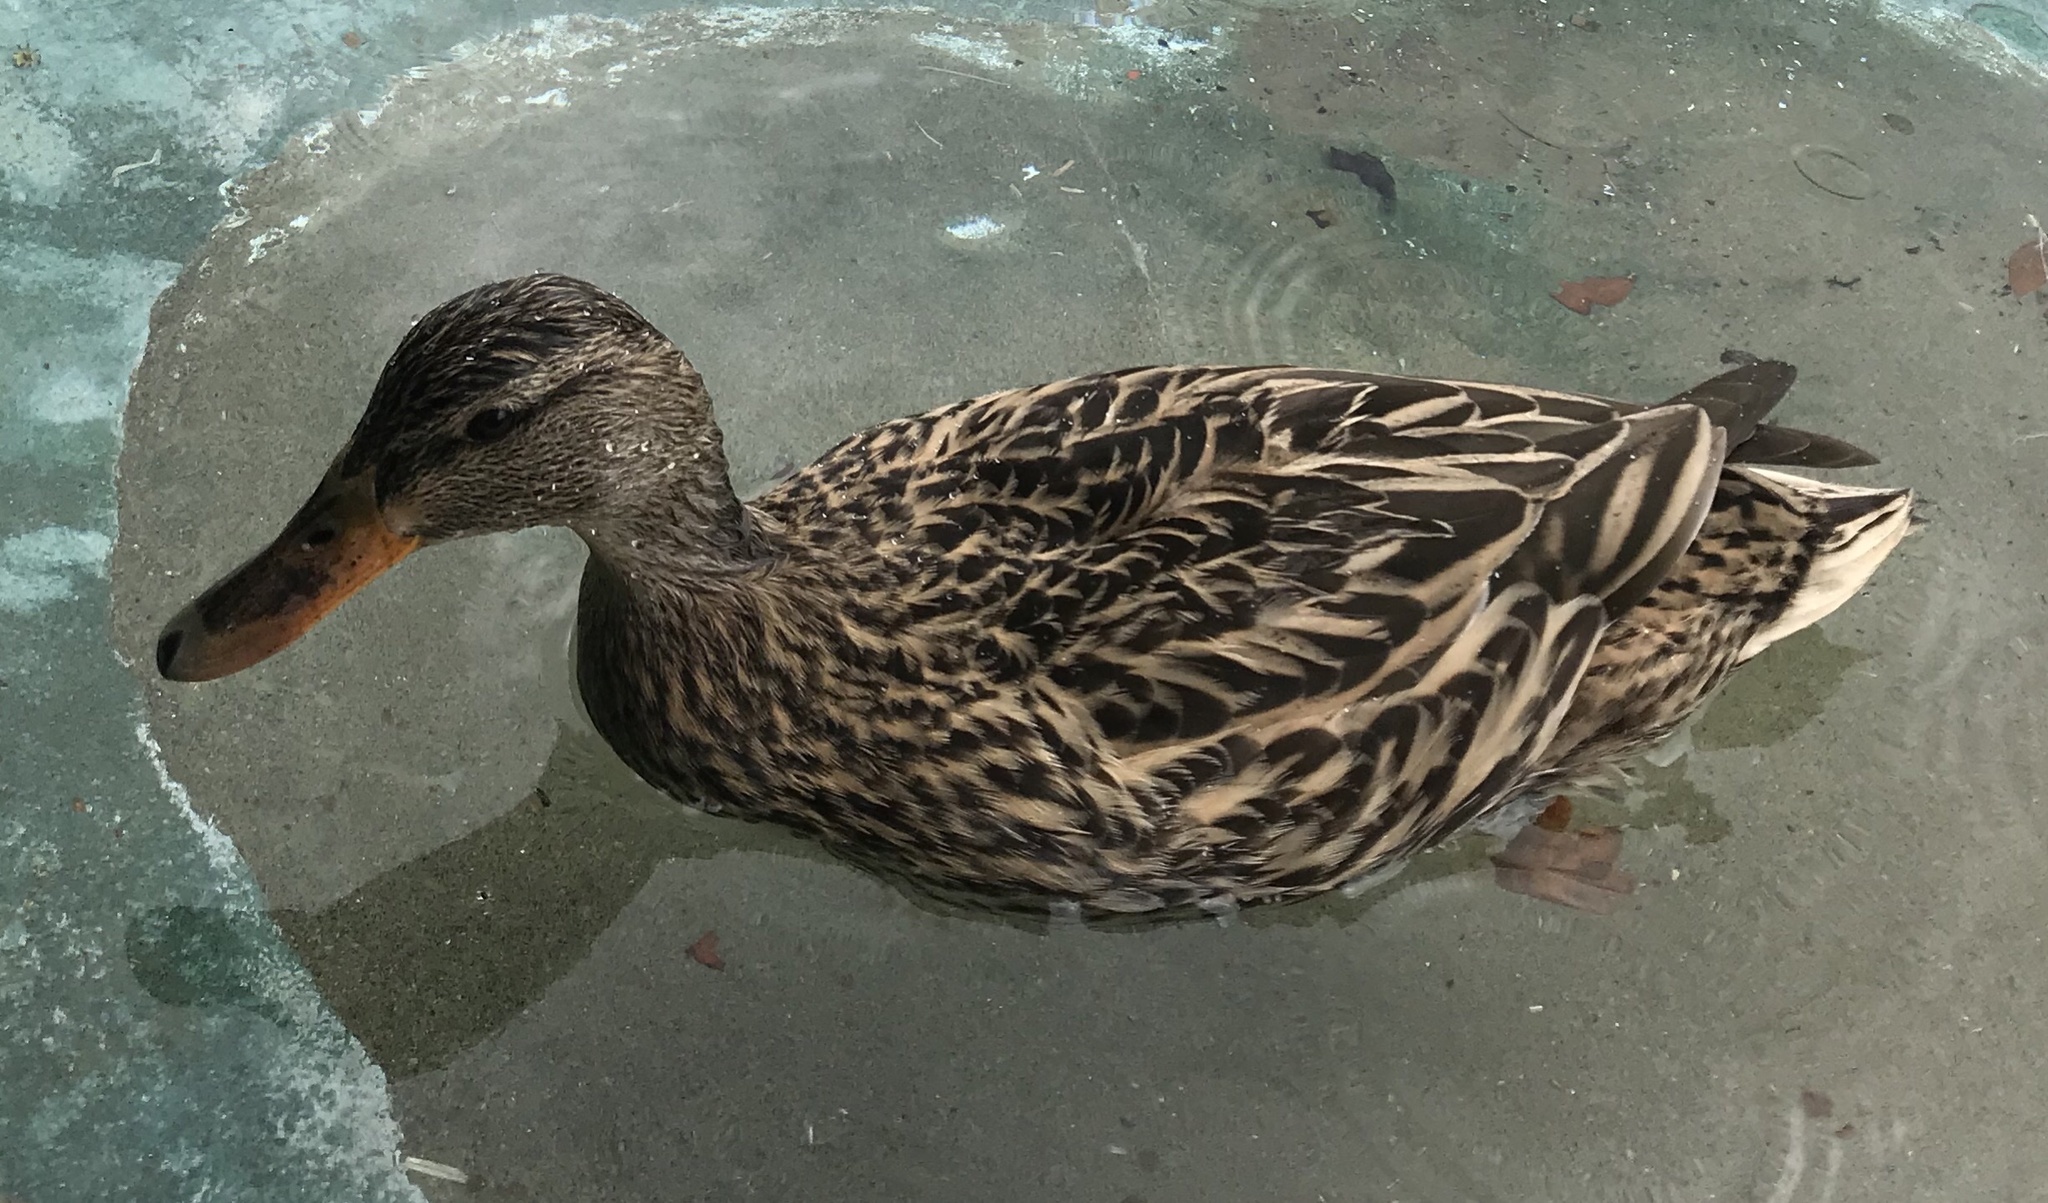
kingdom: Animalia
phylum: Chordata
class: Aves
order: Anseriformes
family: Anatidae
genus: Anas
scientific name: Anas platyrhynchos
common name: Mallard
